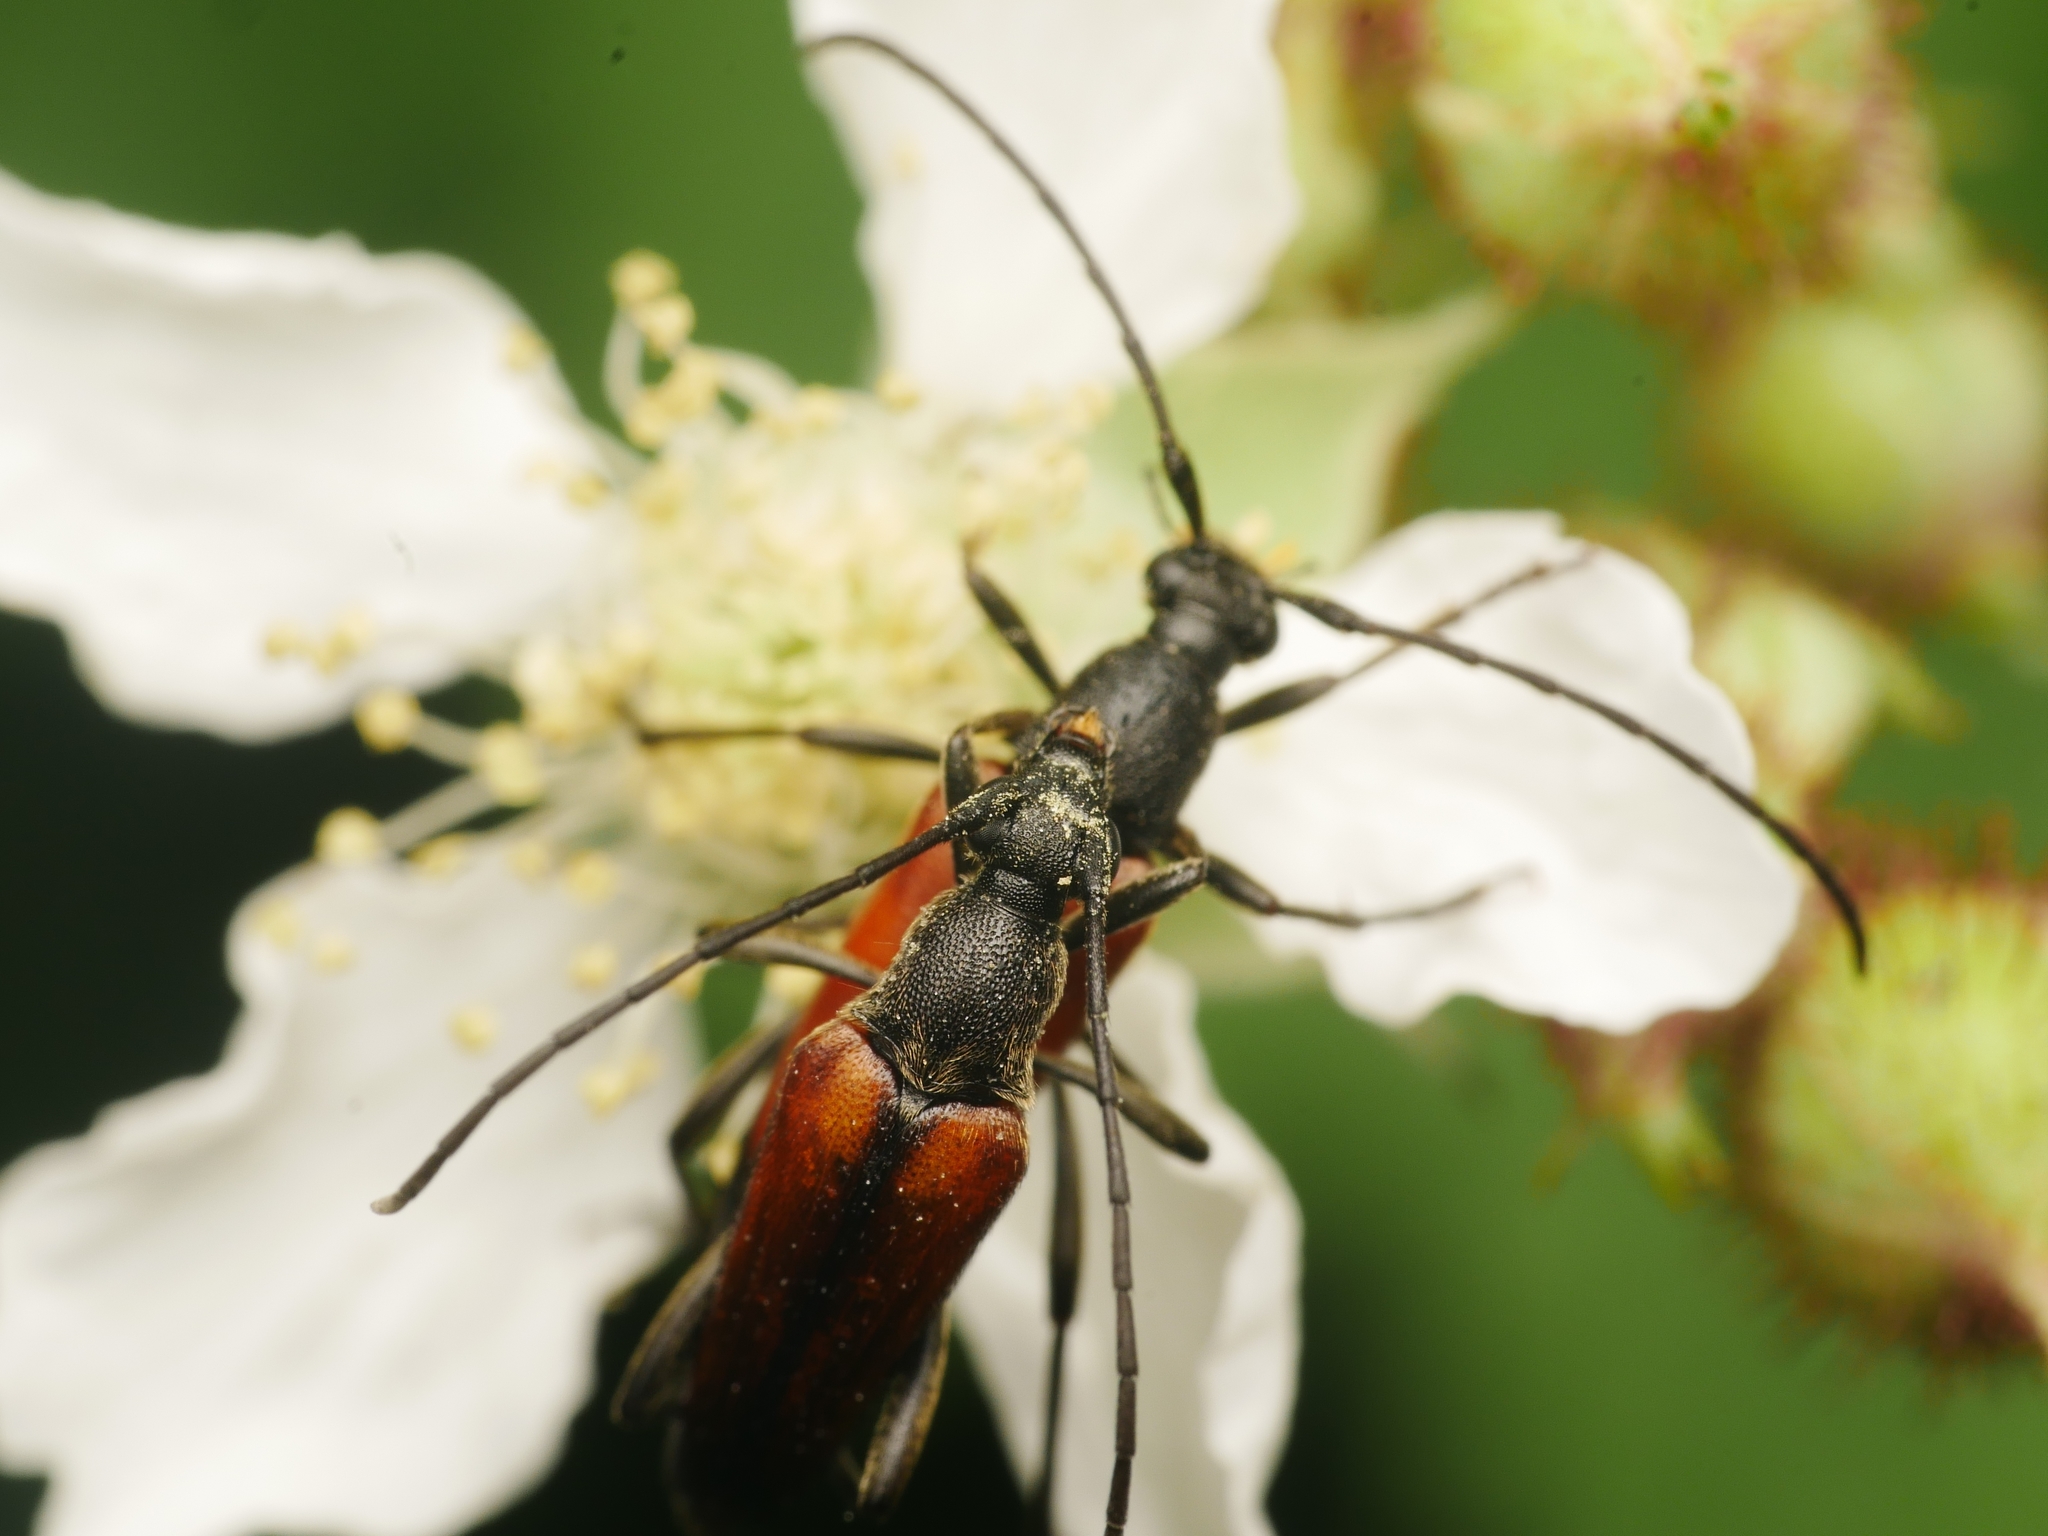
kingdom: Animalia
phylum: Arthropoda
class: Insecta
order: Coleoptera
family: Cerambycidae
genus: Stenurella
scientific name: Stenurella melanura
